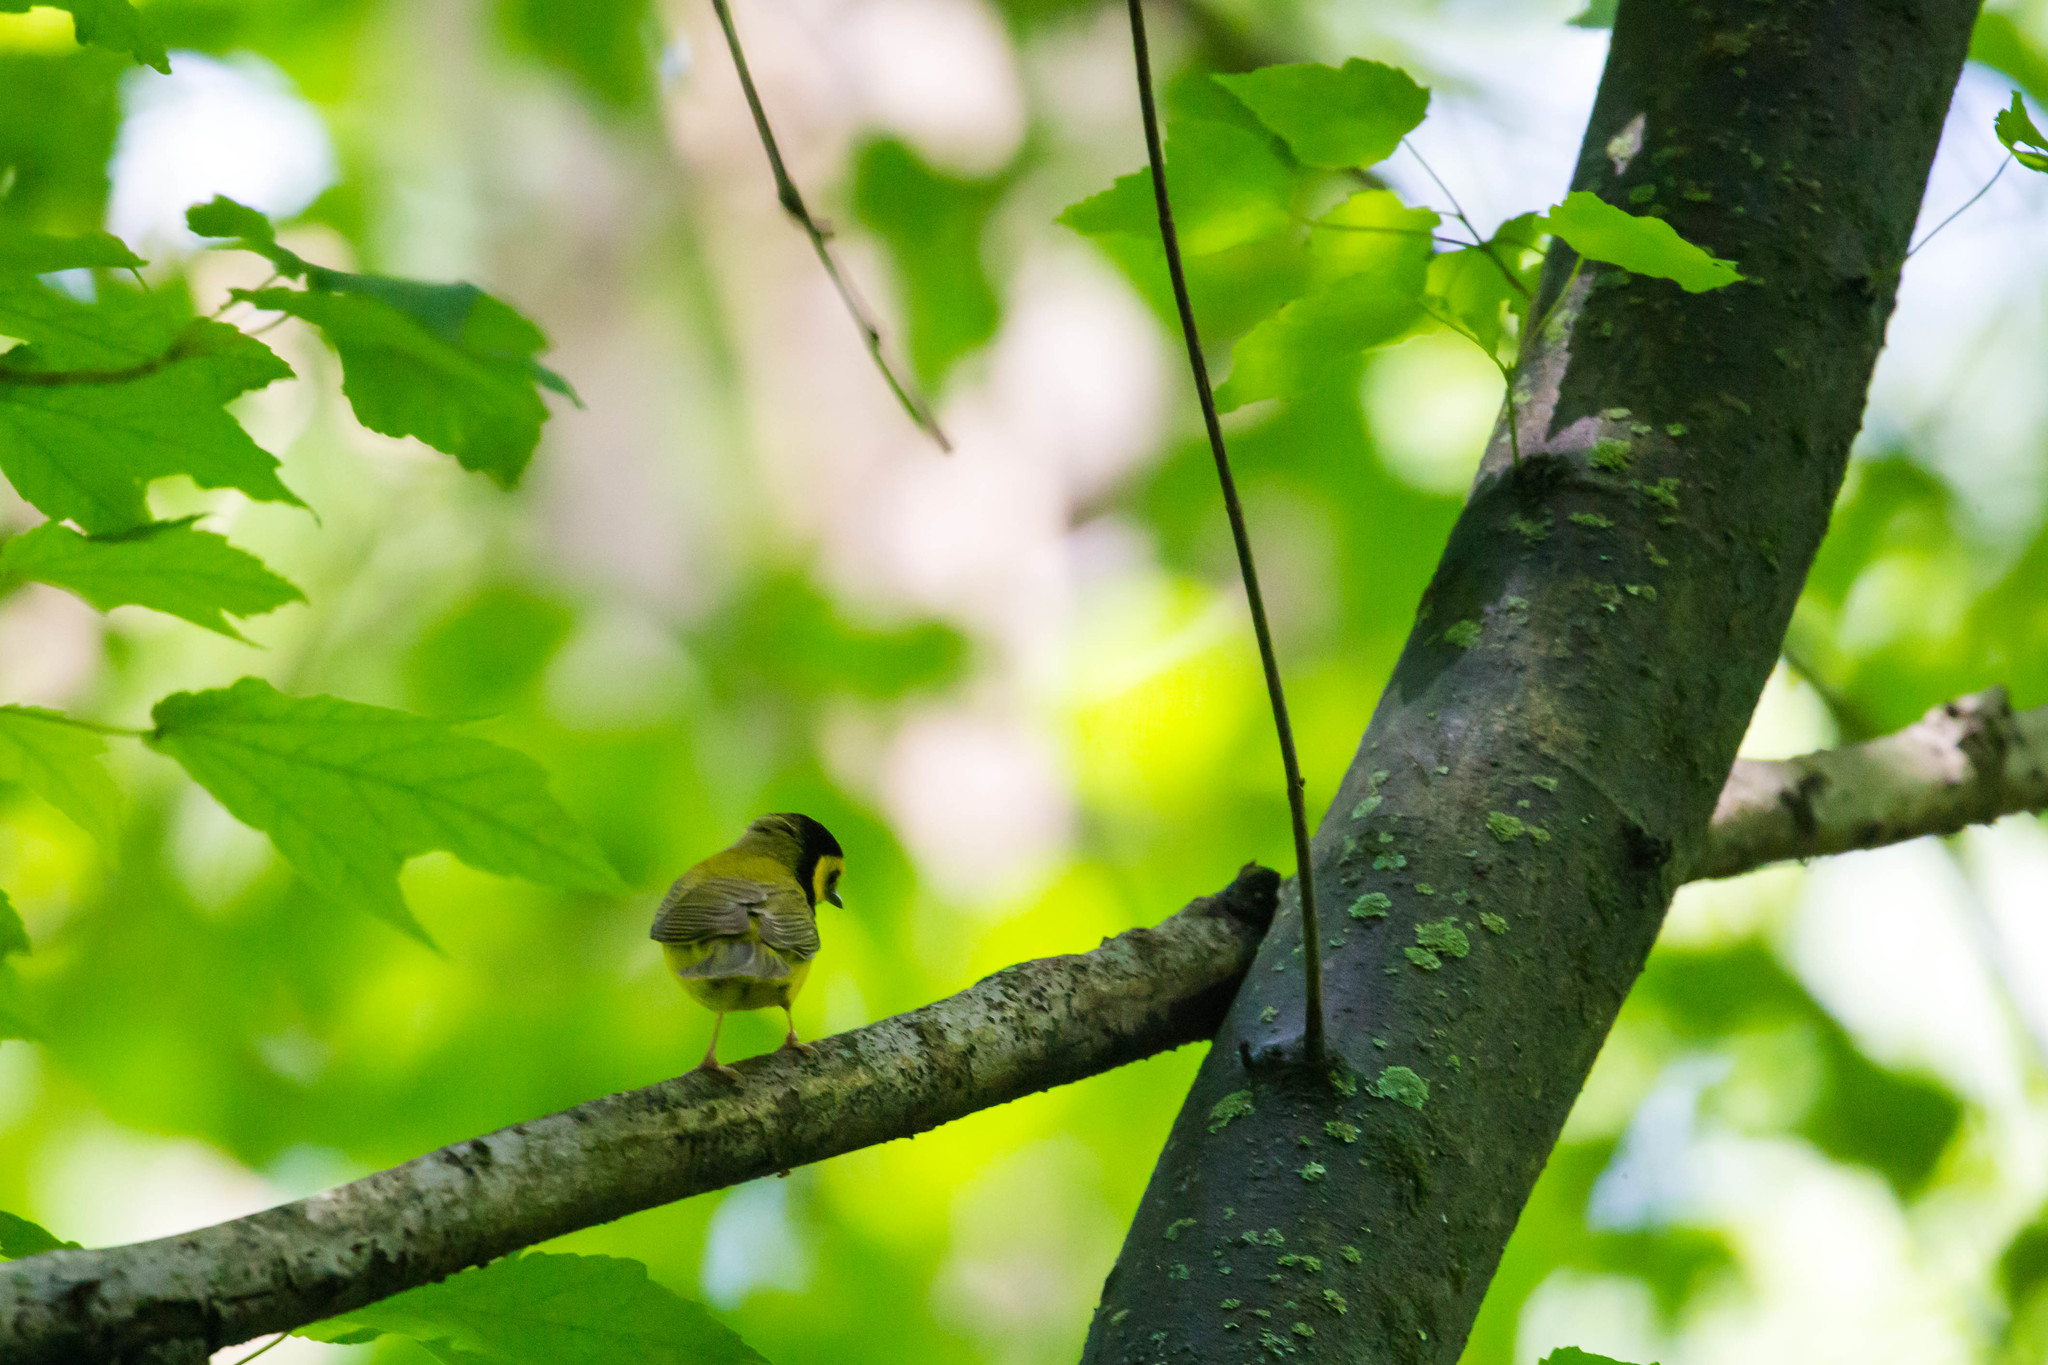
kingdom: Animalia
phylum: Chordata
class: Aves
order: Passeriformes
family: Parulidae
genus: Setophaga
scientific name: Setophaga citrina
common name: Hooded warbler
